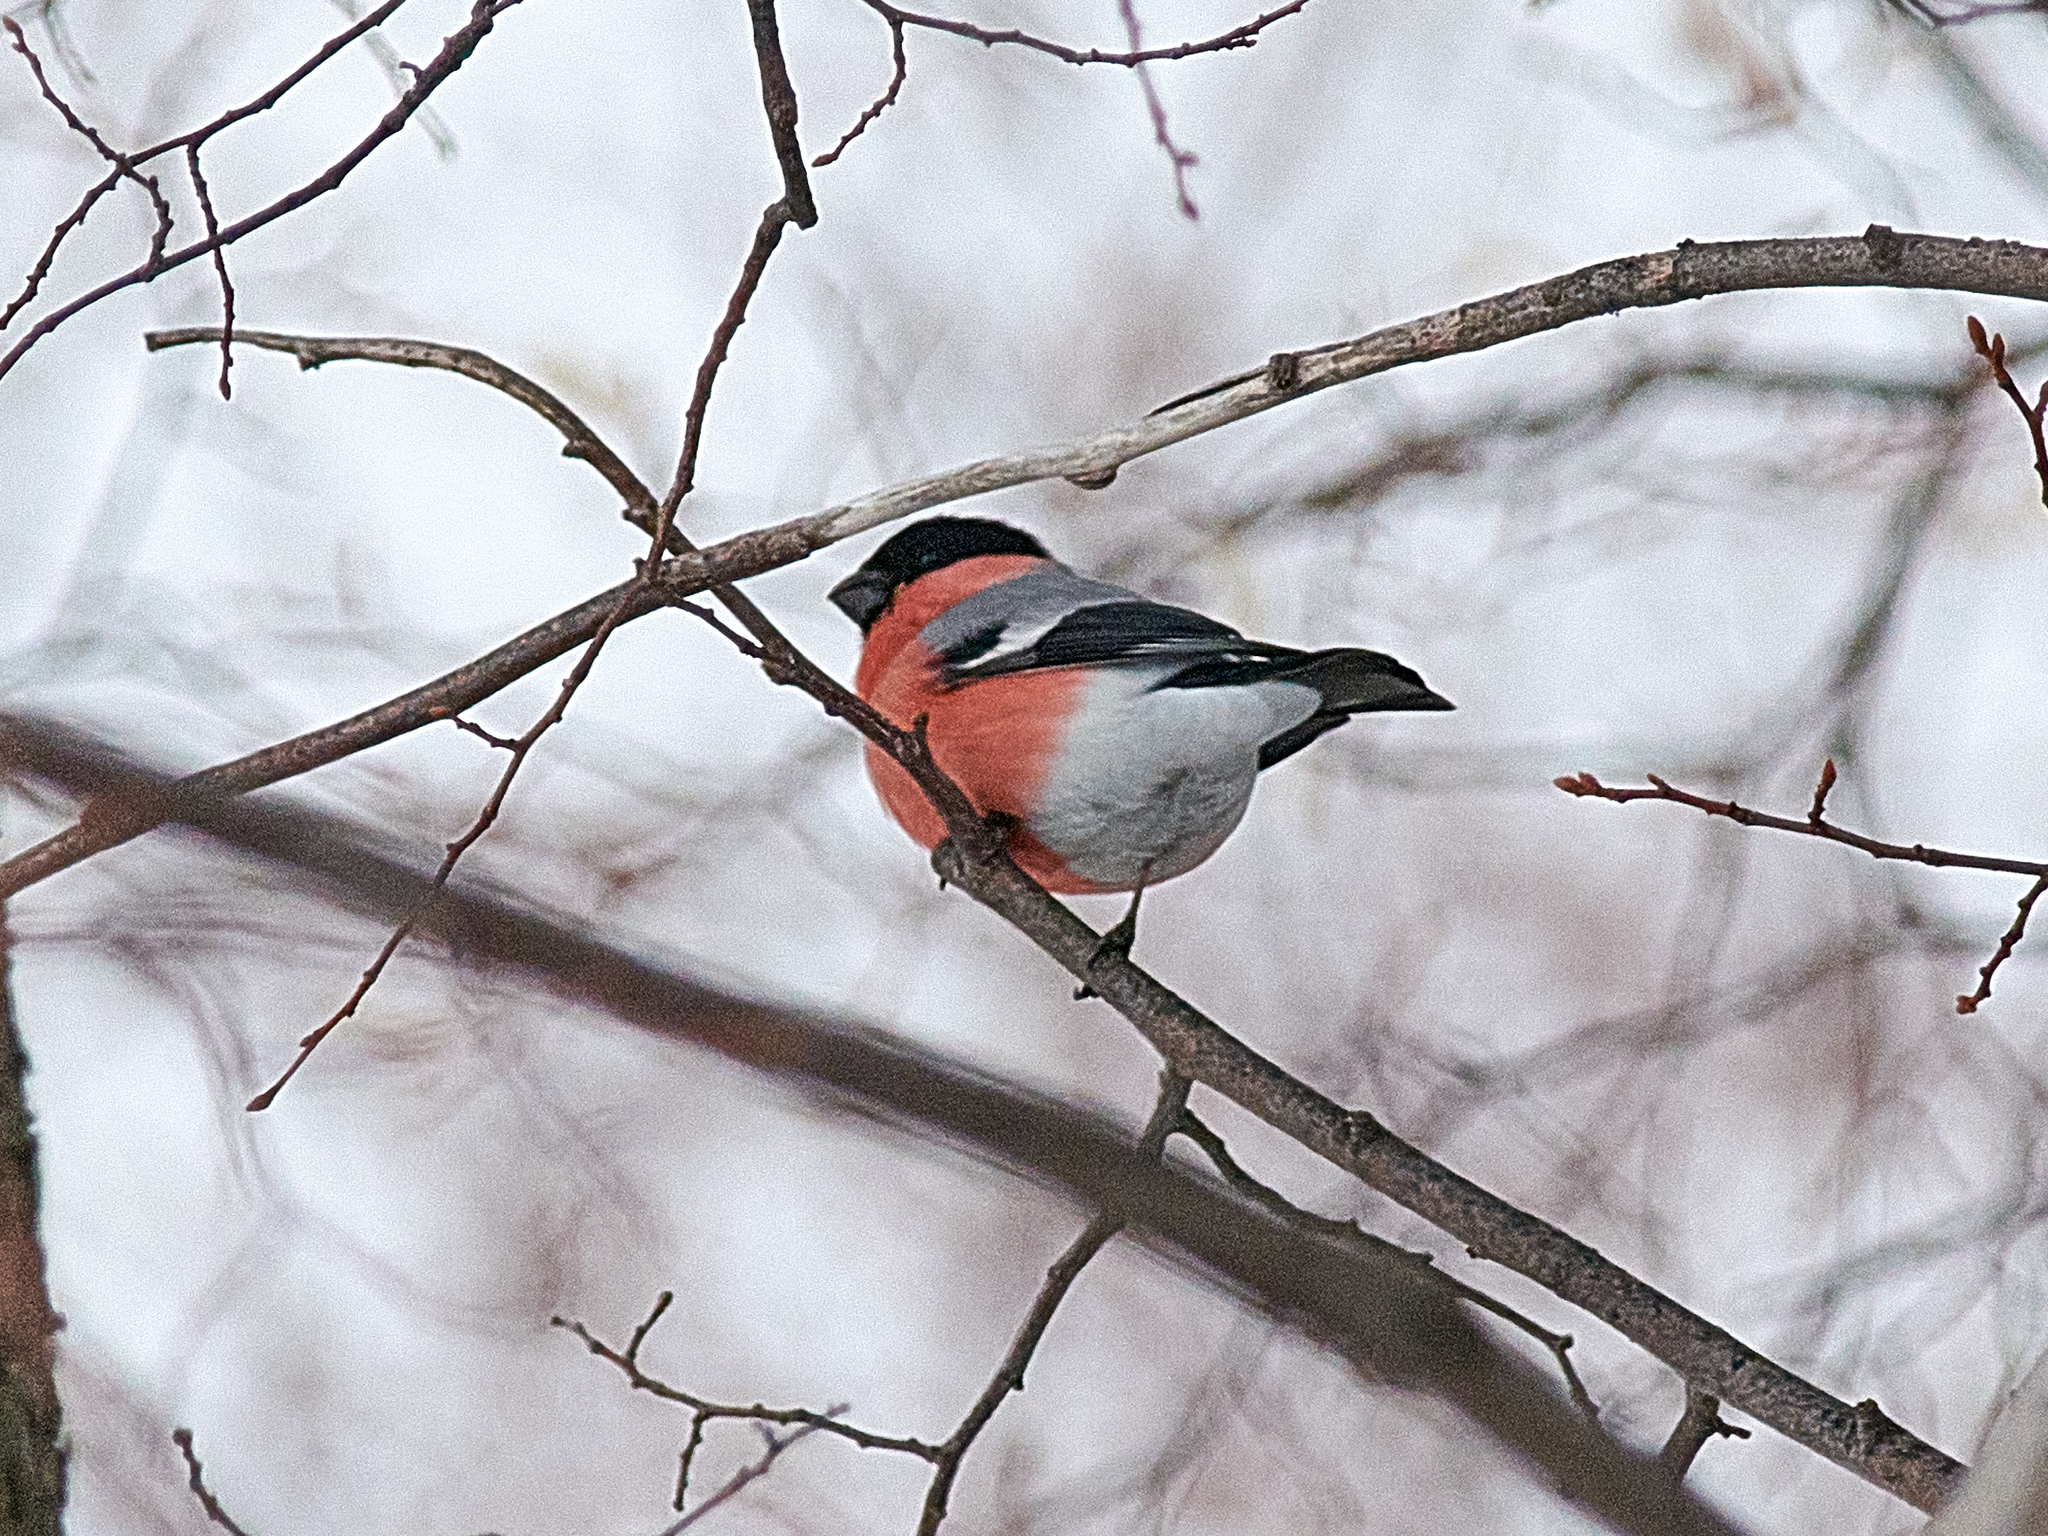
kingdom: Animalia
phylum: Chordata
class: Aves
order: Passeriformes
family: Fringillidae
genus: Pyrrhula
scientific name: Pyrrhula pyrrhula
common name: Eurasian bullfinch
